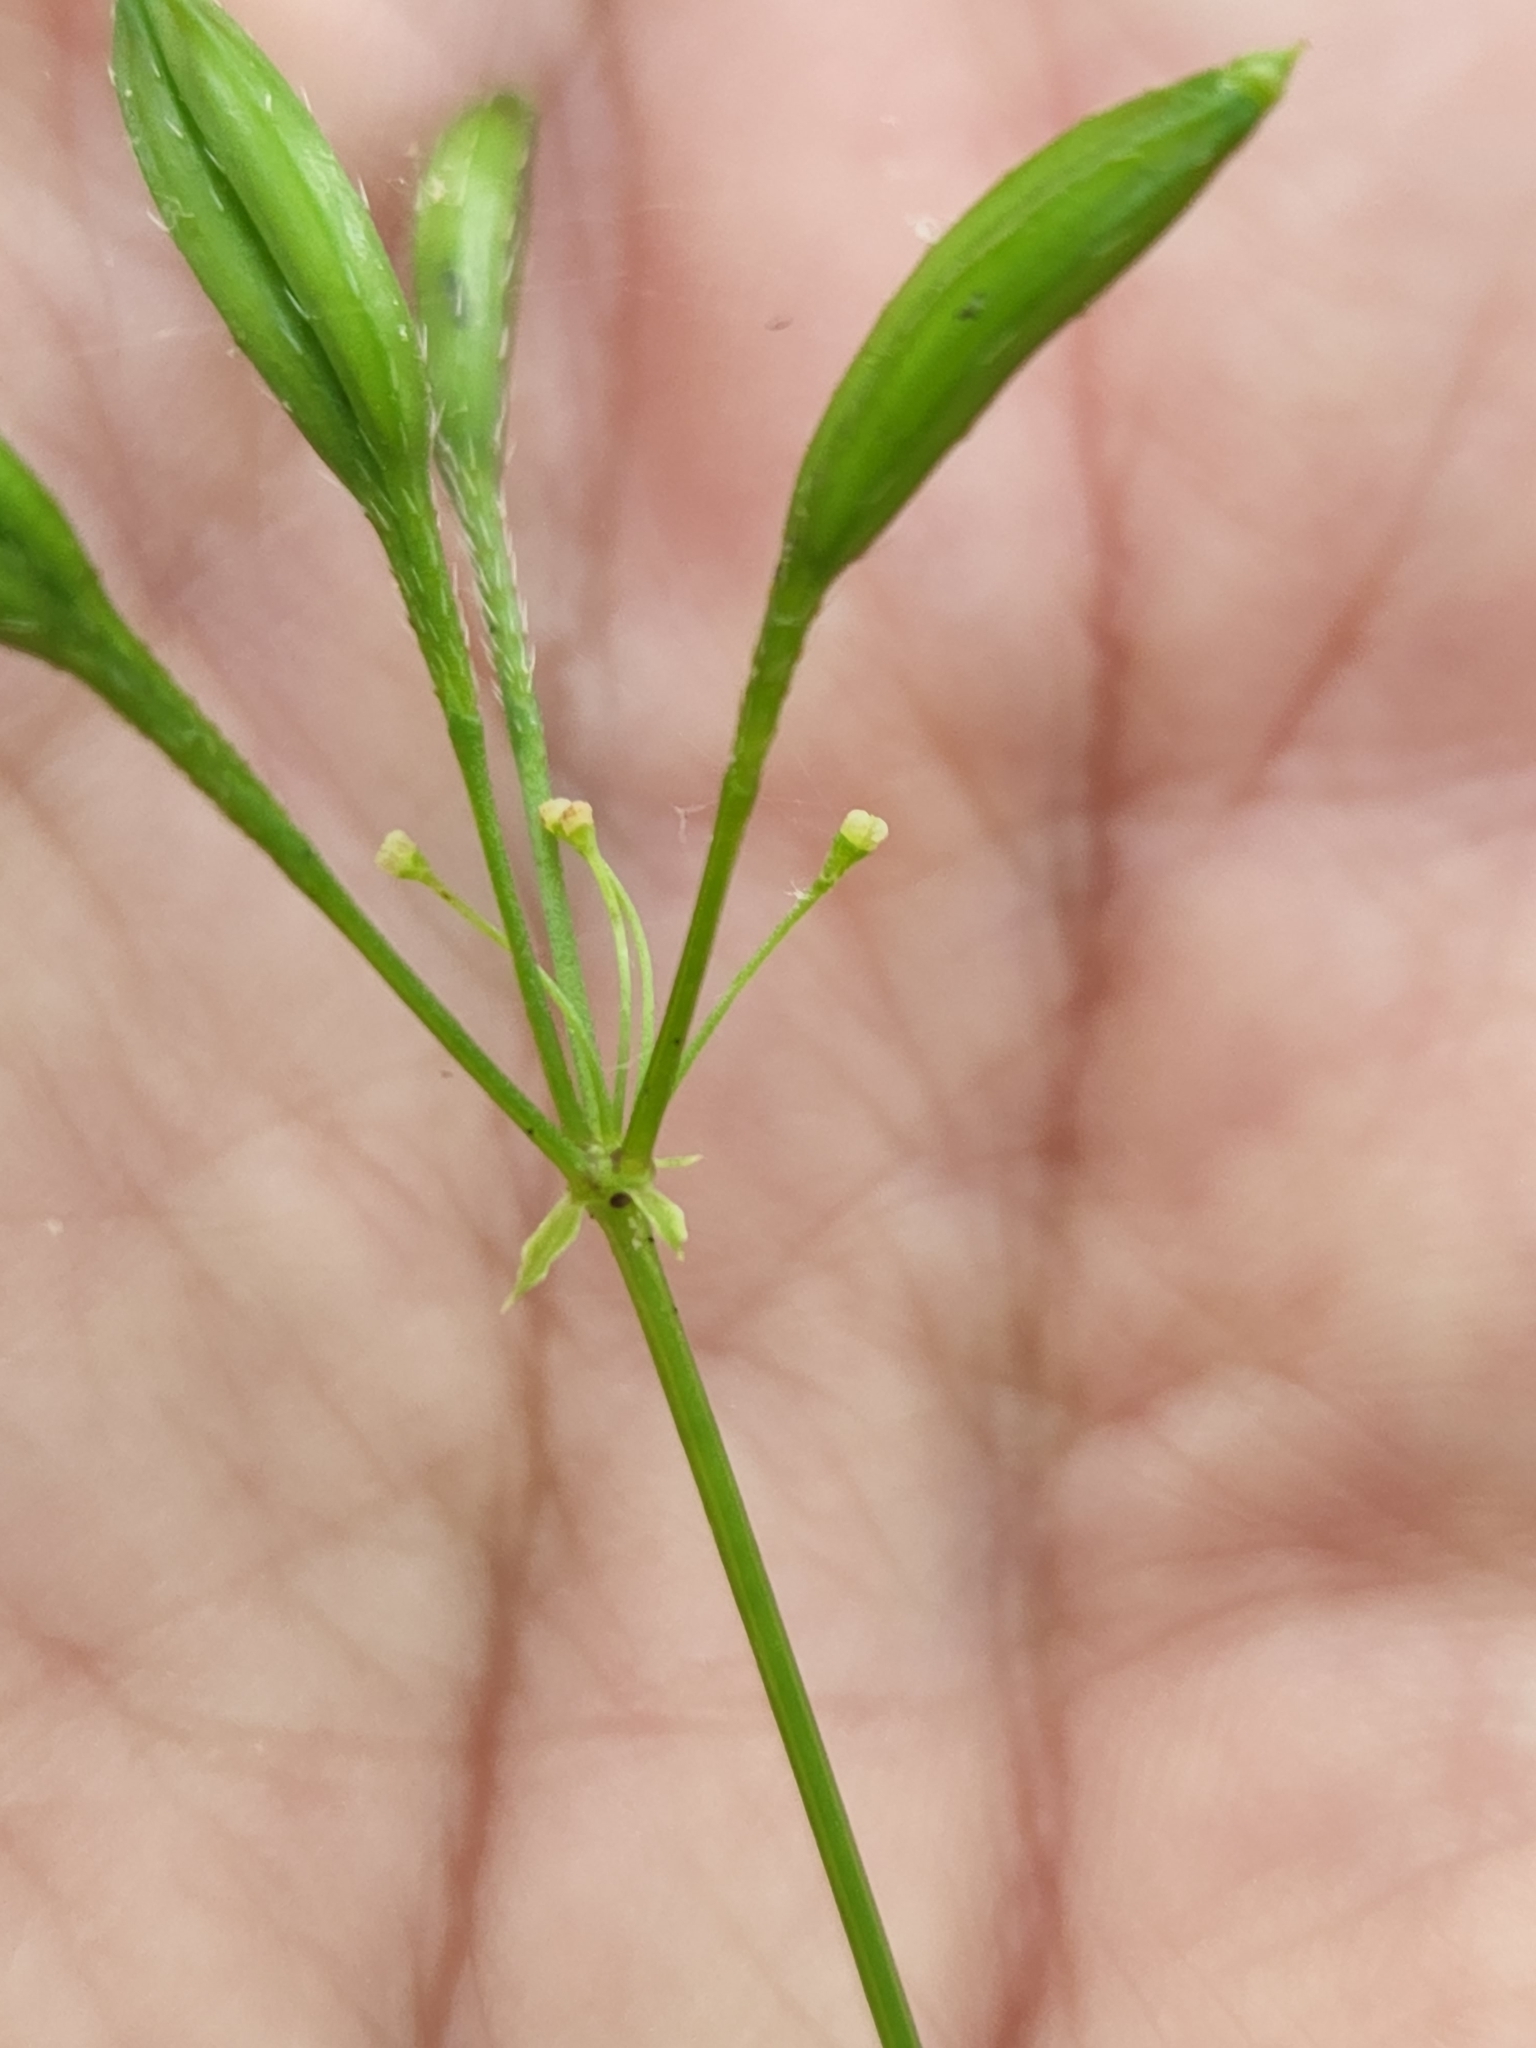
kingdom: Plantae
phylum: Tracheophyta
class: Magnoliopsida
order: Apiales
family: Apiaceae
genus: Osmorhiza
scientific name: Osmorhiza claytonii
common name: Hairy sweet cicely
